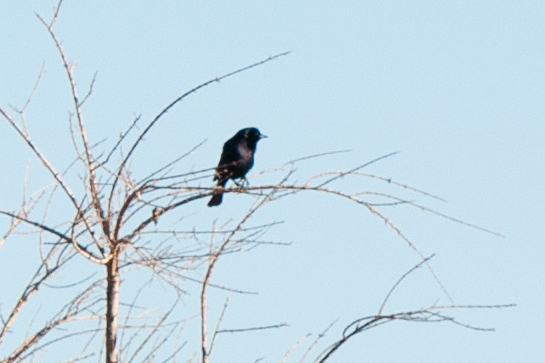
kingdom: Animalia
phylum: Chordata
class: Aves
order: Passeriformes
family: Icteridae
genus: Molothrus
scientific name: Molothrus bonariensis
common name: Shiny cowbird
